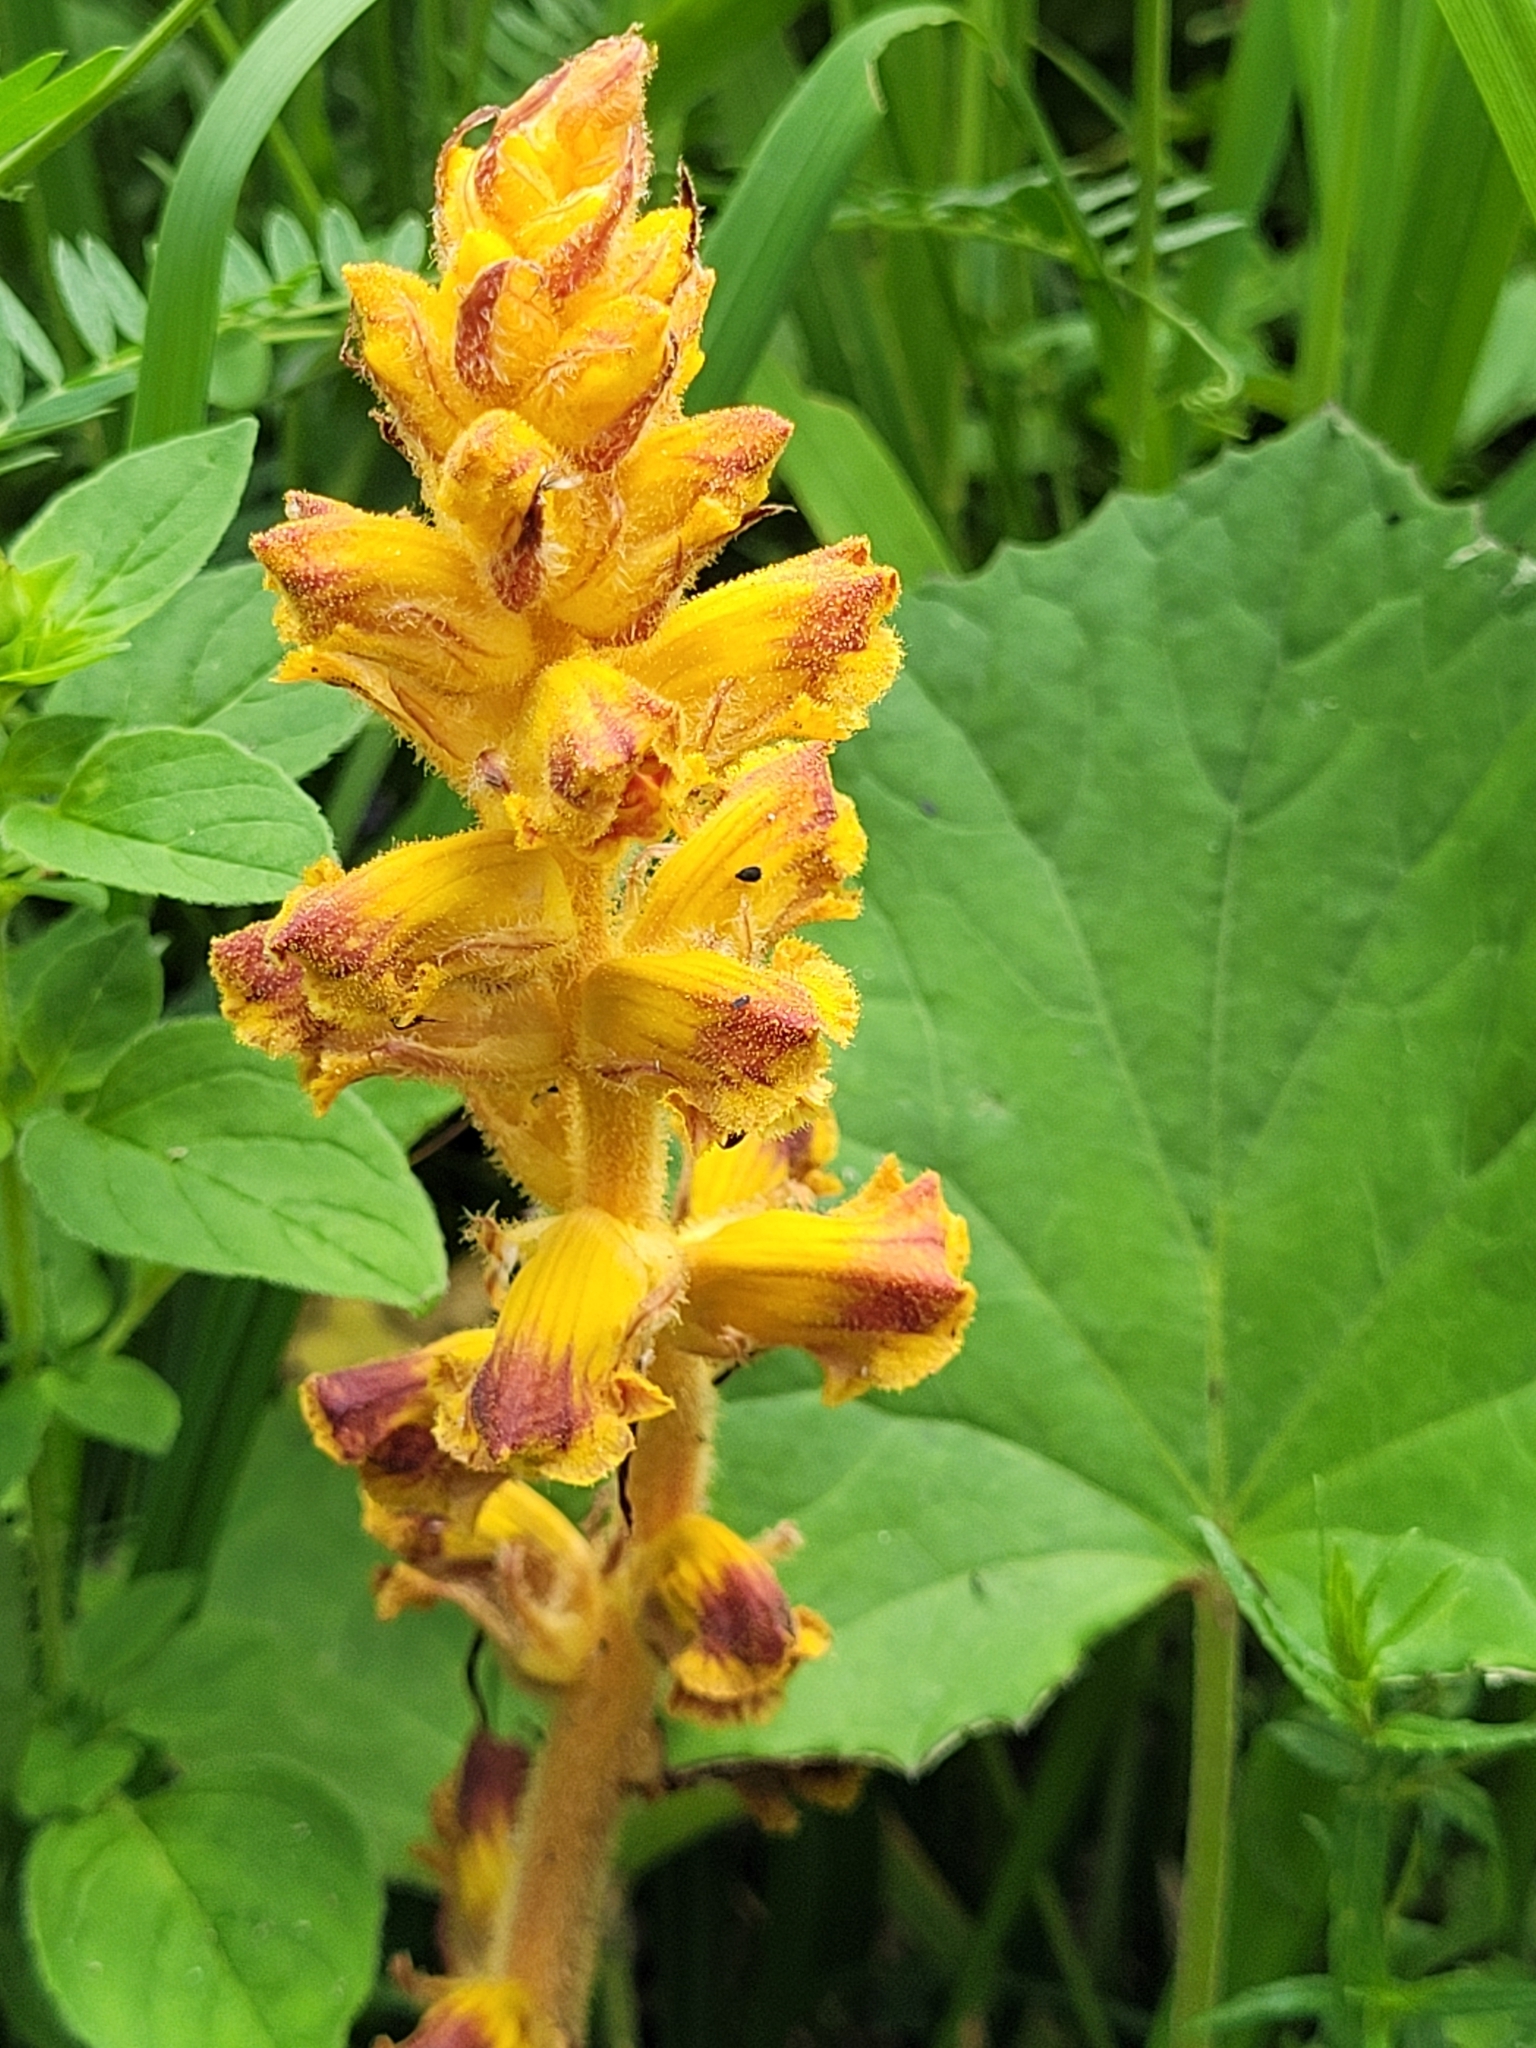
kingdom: Plantae
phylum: Tracheophyta
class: Magnoliopsida
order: Lamiales
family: Orobanchaceae
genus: Orobanche
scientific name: Orobanche gracilis
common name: Slender broomrape
